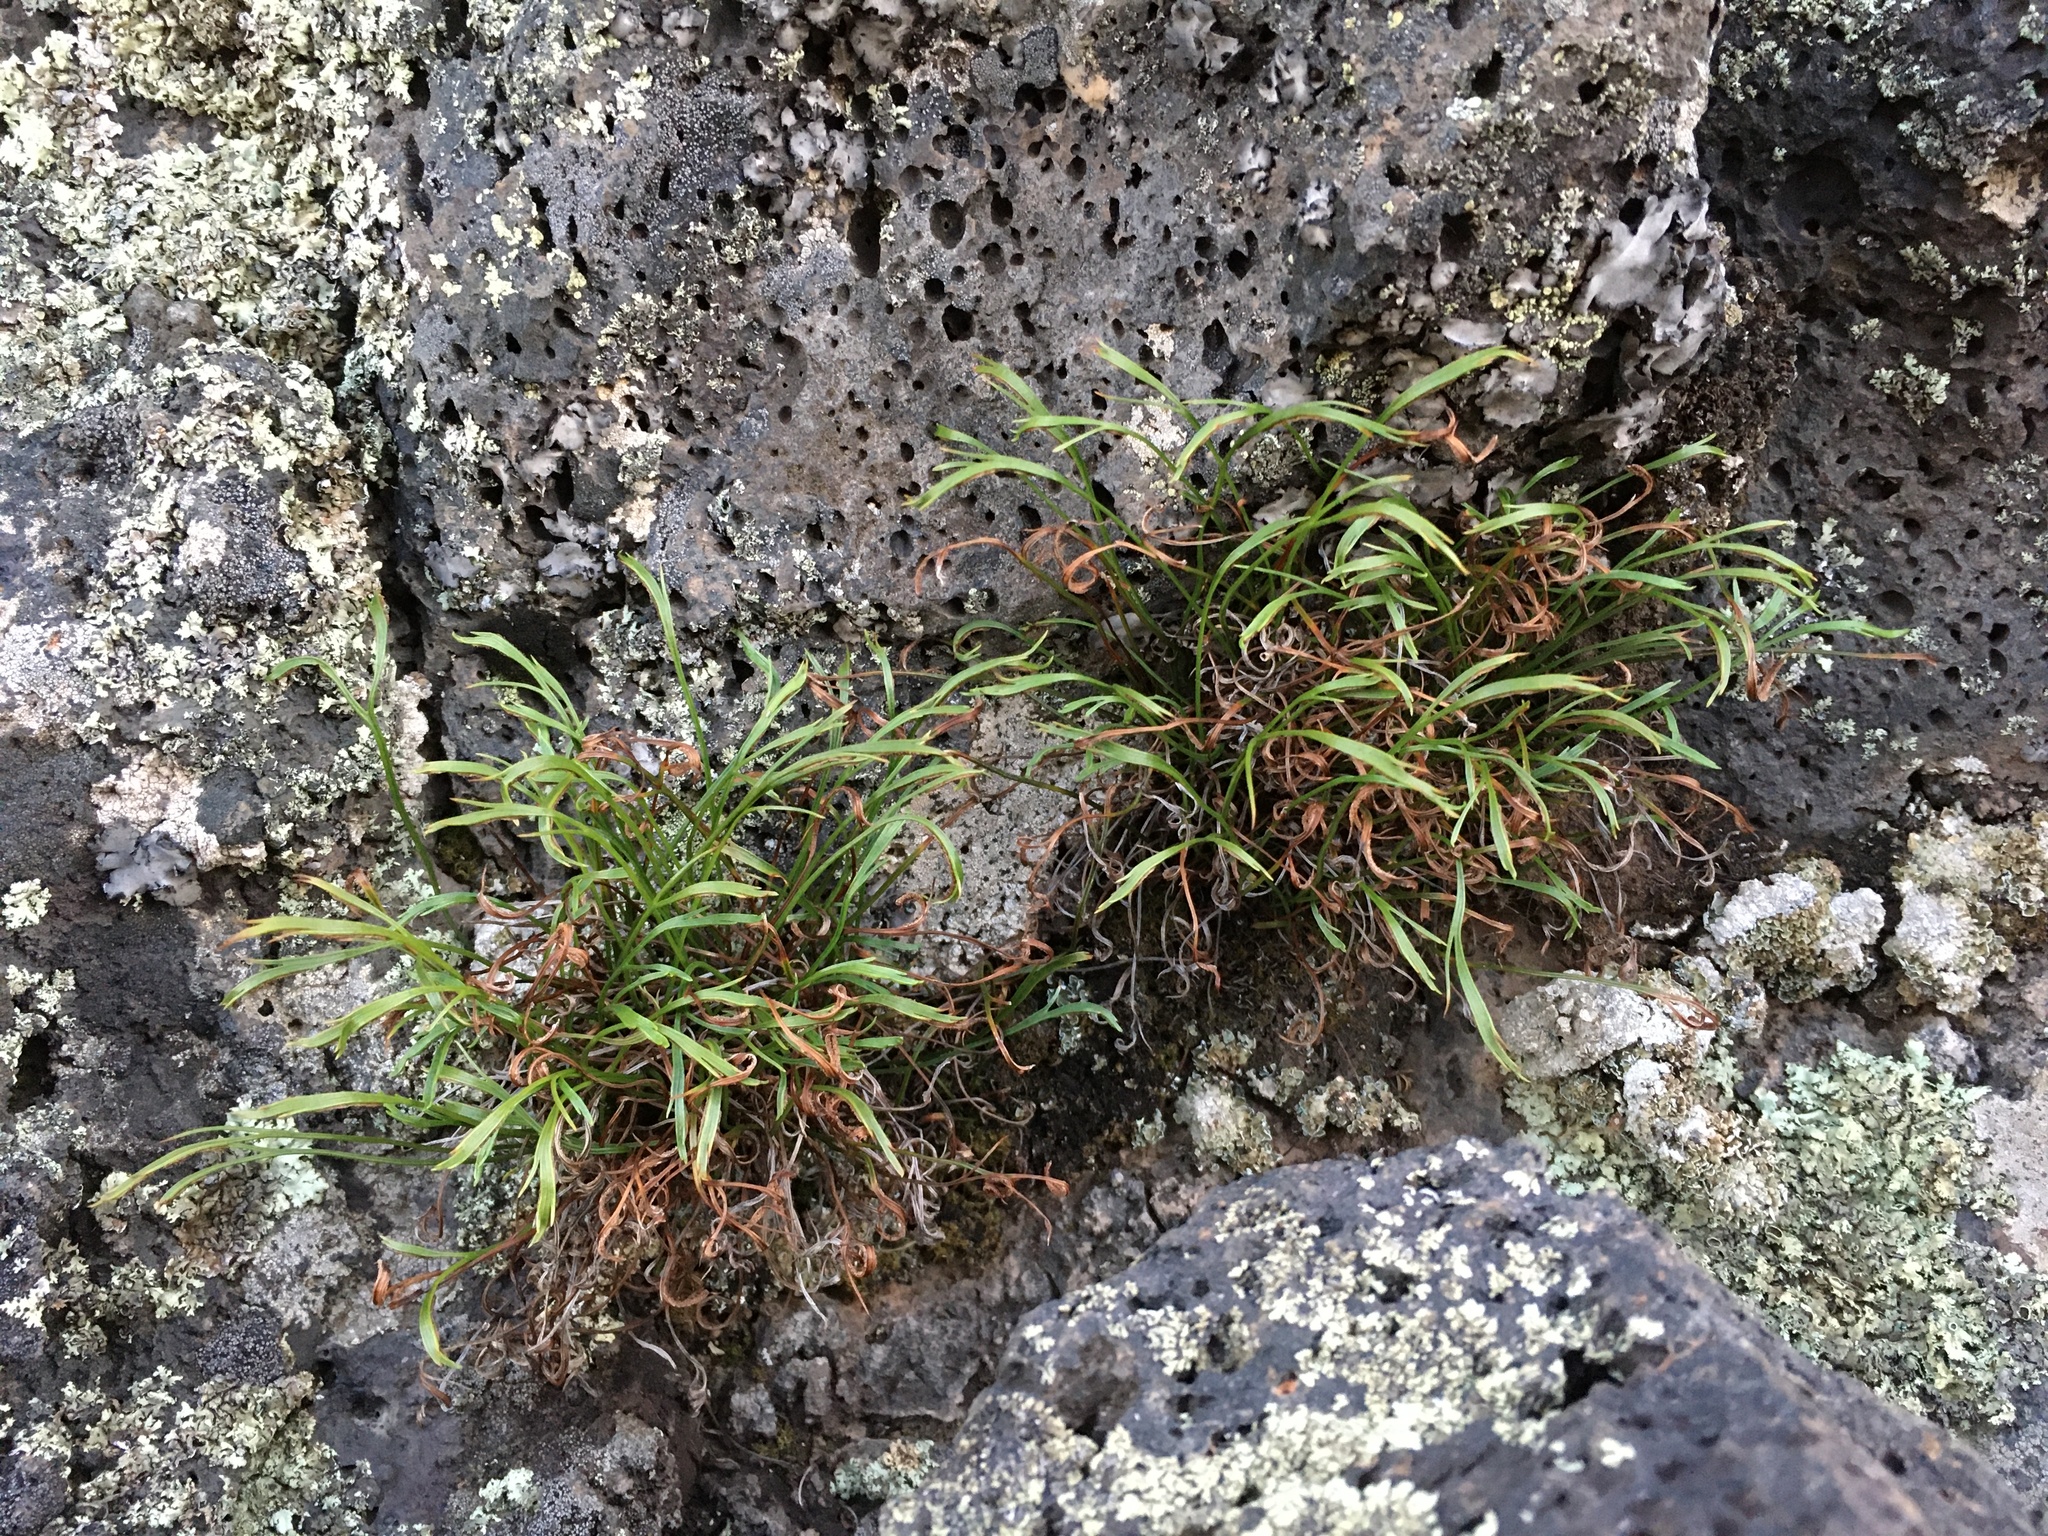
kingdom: Plantae
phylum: Tracheophyta
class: Polypodiopsida
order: Polypodiales
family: Aspleniaceae
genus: Asplenium
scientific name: Asplenium septentrionale
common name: Forked spleenwort
